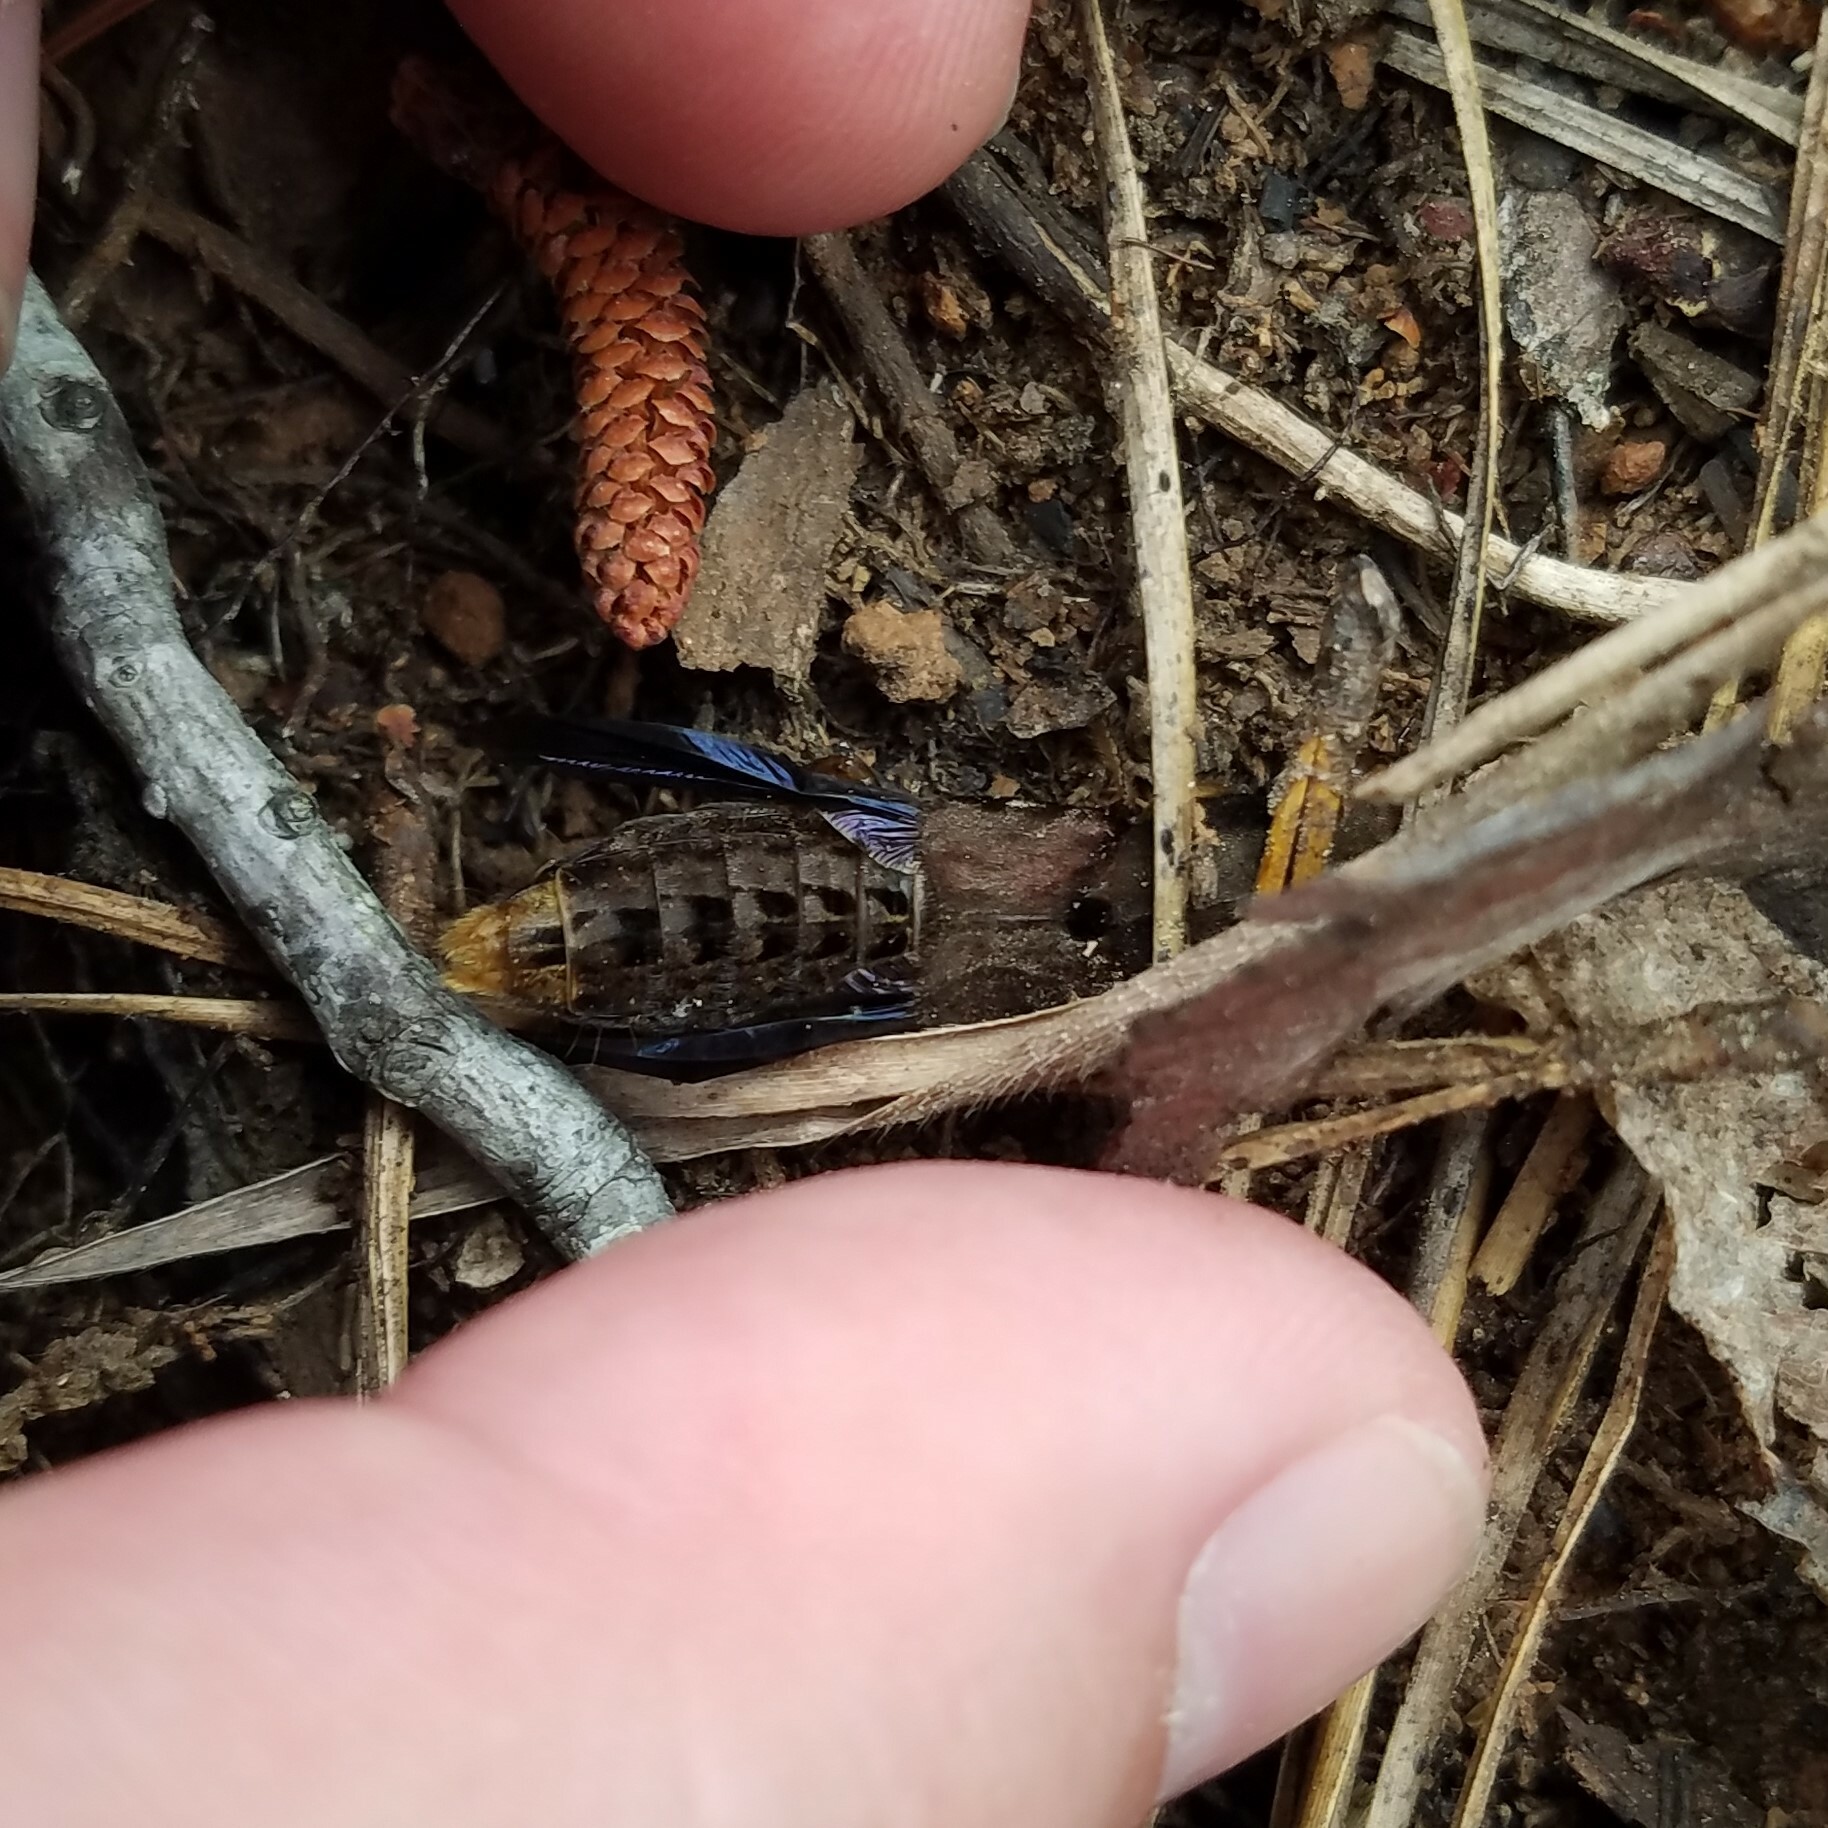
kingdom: Animalia
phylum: Arthropoda
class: Insecta
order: Coleoptera
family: Staphylinidae
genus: Platydracus
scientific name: Platydracus maculosus
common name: Brown rove beetle
